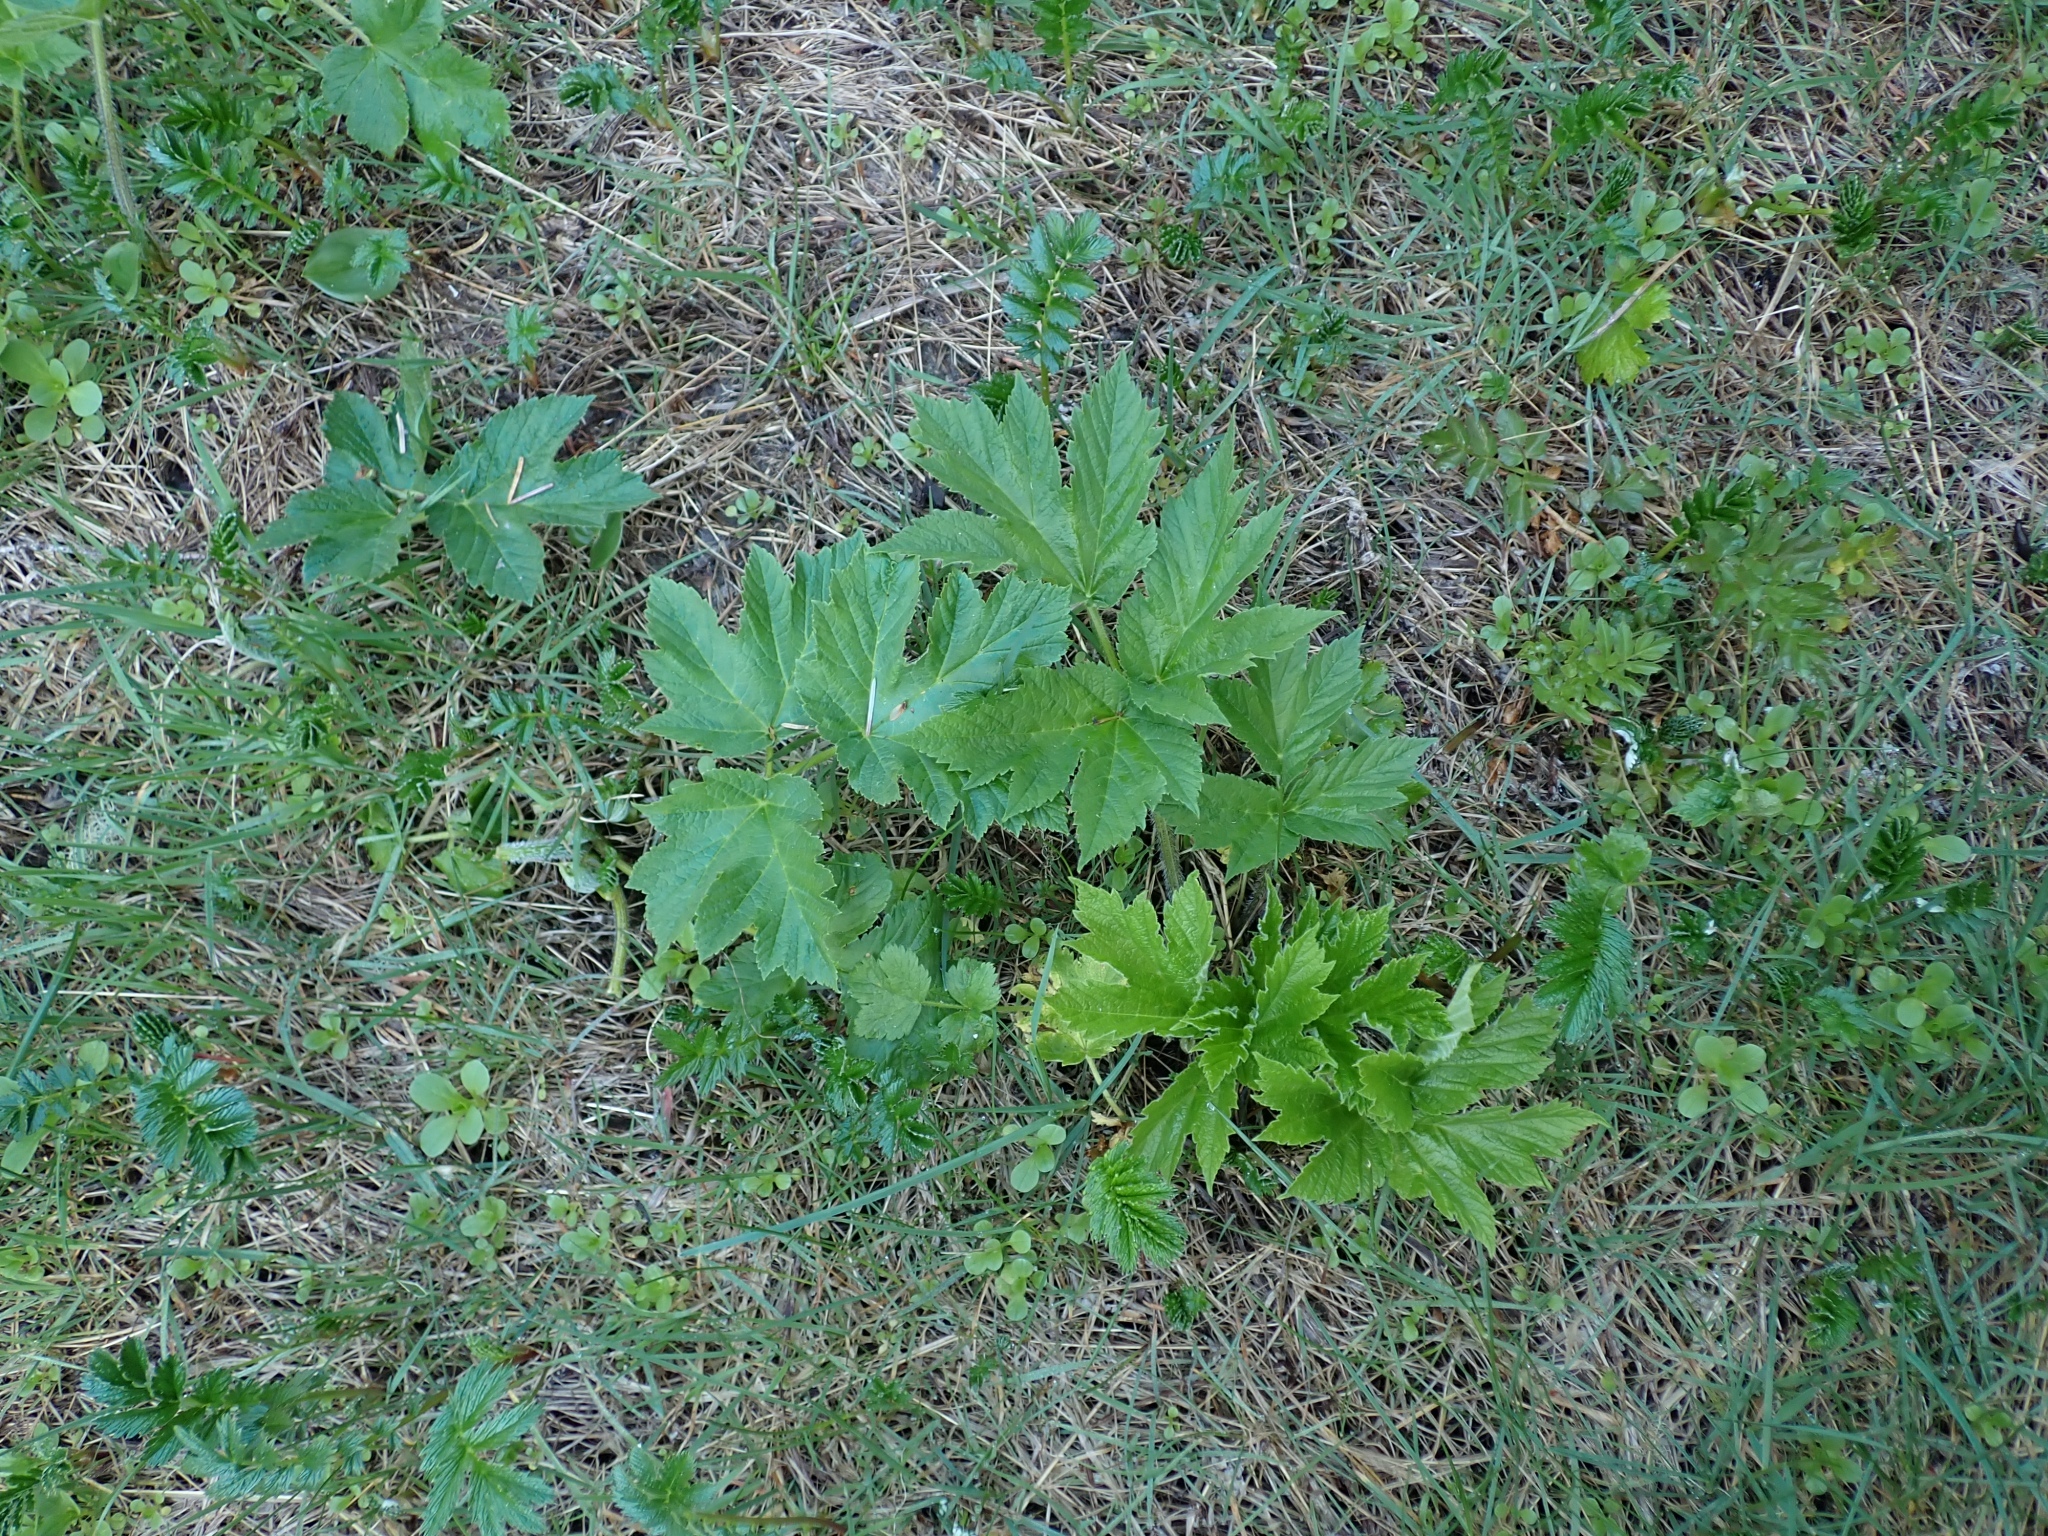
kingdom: Plantae
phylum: Tracheophyta
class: Magnoliopsida
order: Apiales
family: Apiaceae
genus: Heracleum
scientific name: Heracleum maximum
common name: American cow parsnip
